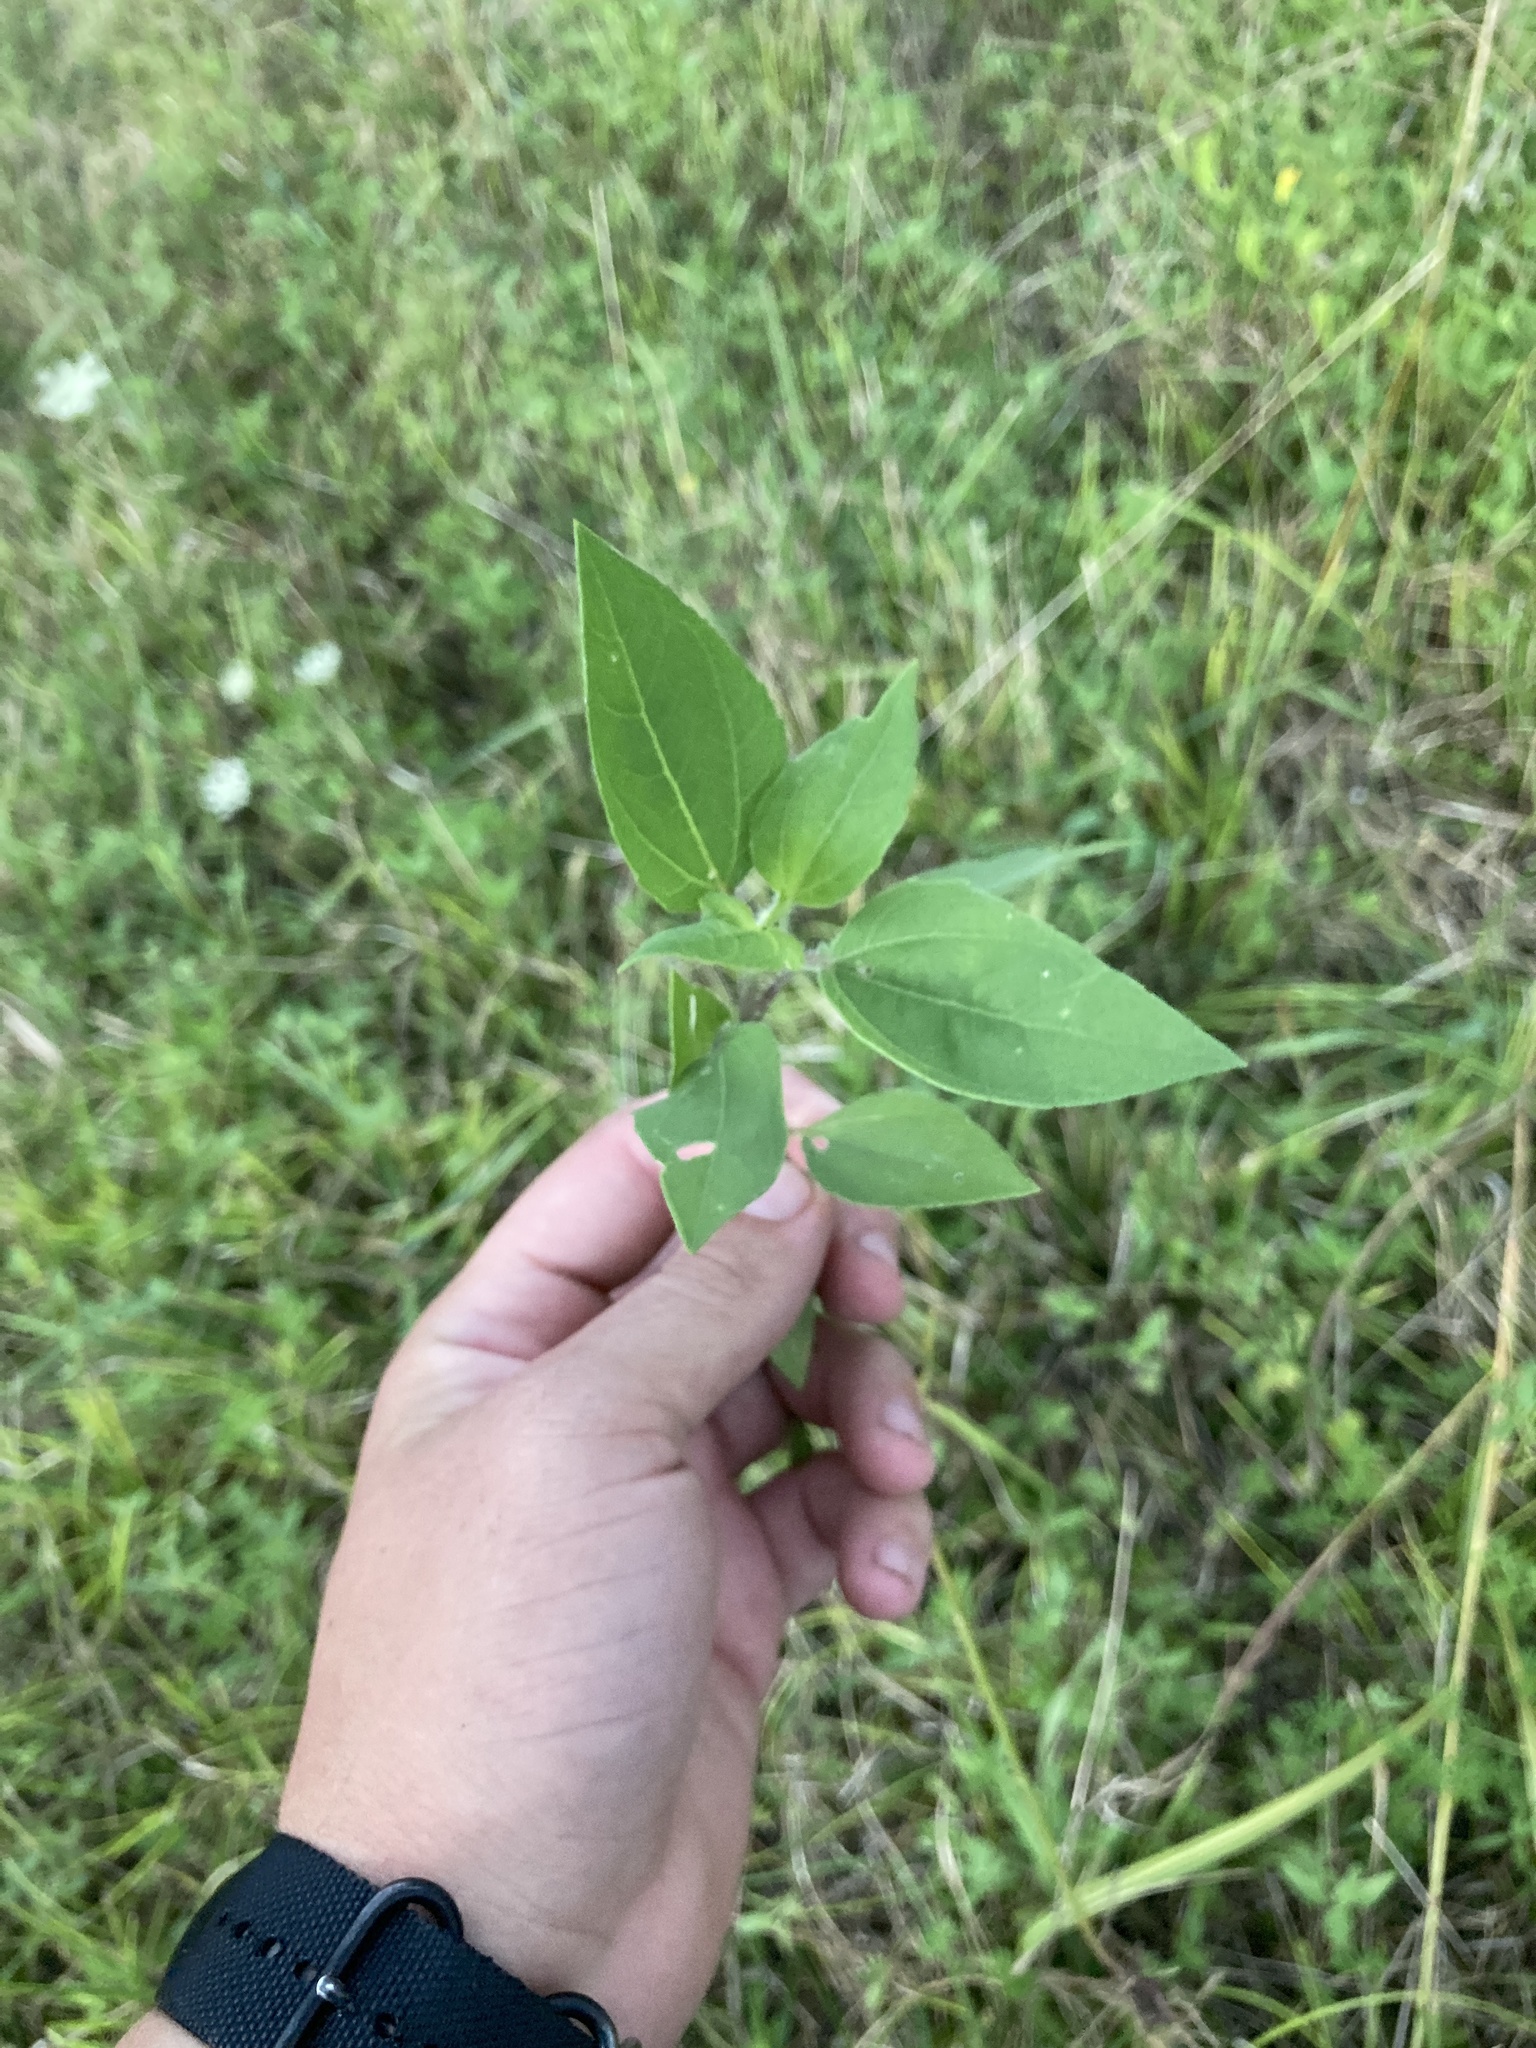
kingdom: Plantae
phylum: Tracheophyta
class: Magnoliopsida
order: Asterales
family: Asteraceae
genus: Iva
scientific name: Iva annua
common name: Marsh-elder
